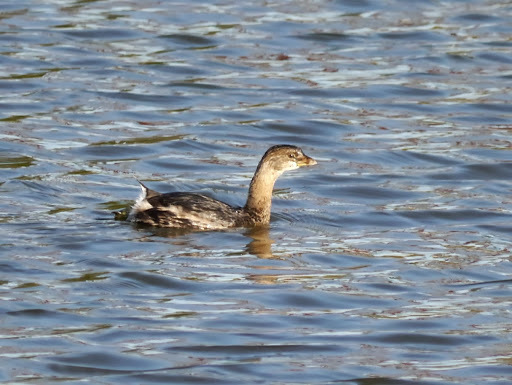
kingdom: Animalia
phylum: Chordata
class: Aves
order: Podicipediformes
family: Podicipedidae
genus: Podilymbus
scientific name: Podilymbus podiceps
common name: Pied-billed grebe
